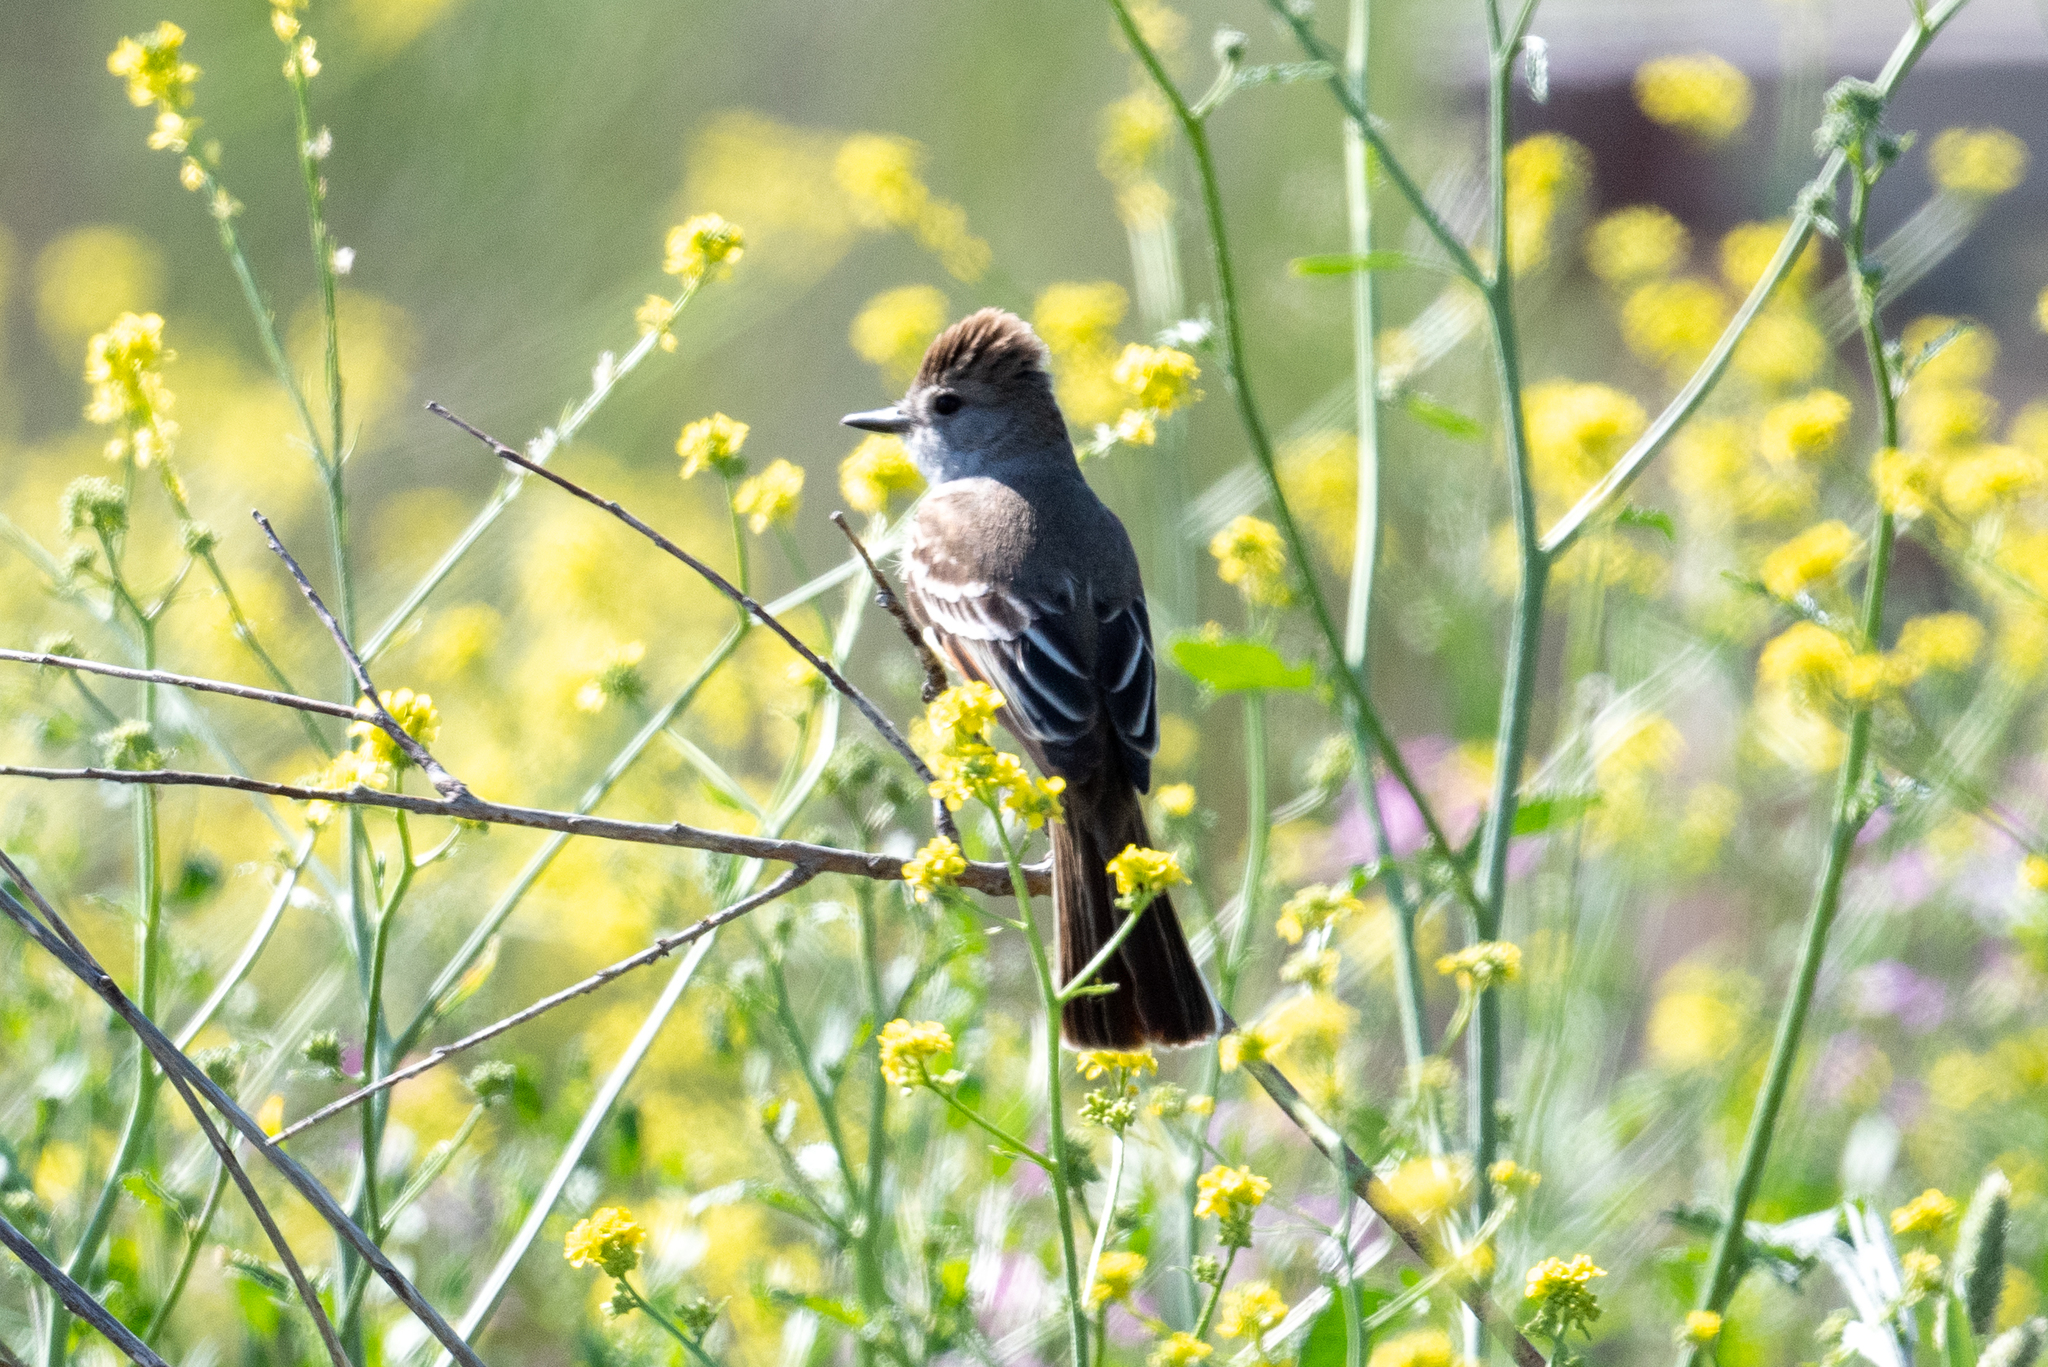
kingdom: Animalia
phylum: Chordata
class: Aves
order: Passeriformes
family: Tyrannidae
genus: Myiarchus
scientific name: Myiarchus cinerascens
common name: Ash-throated flycatcher
